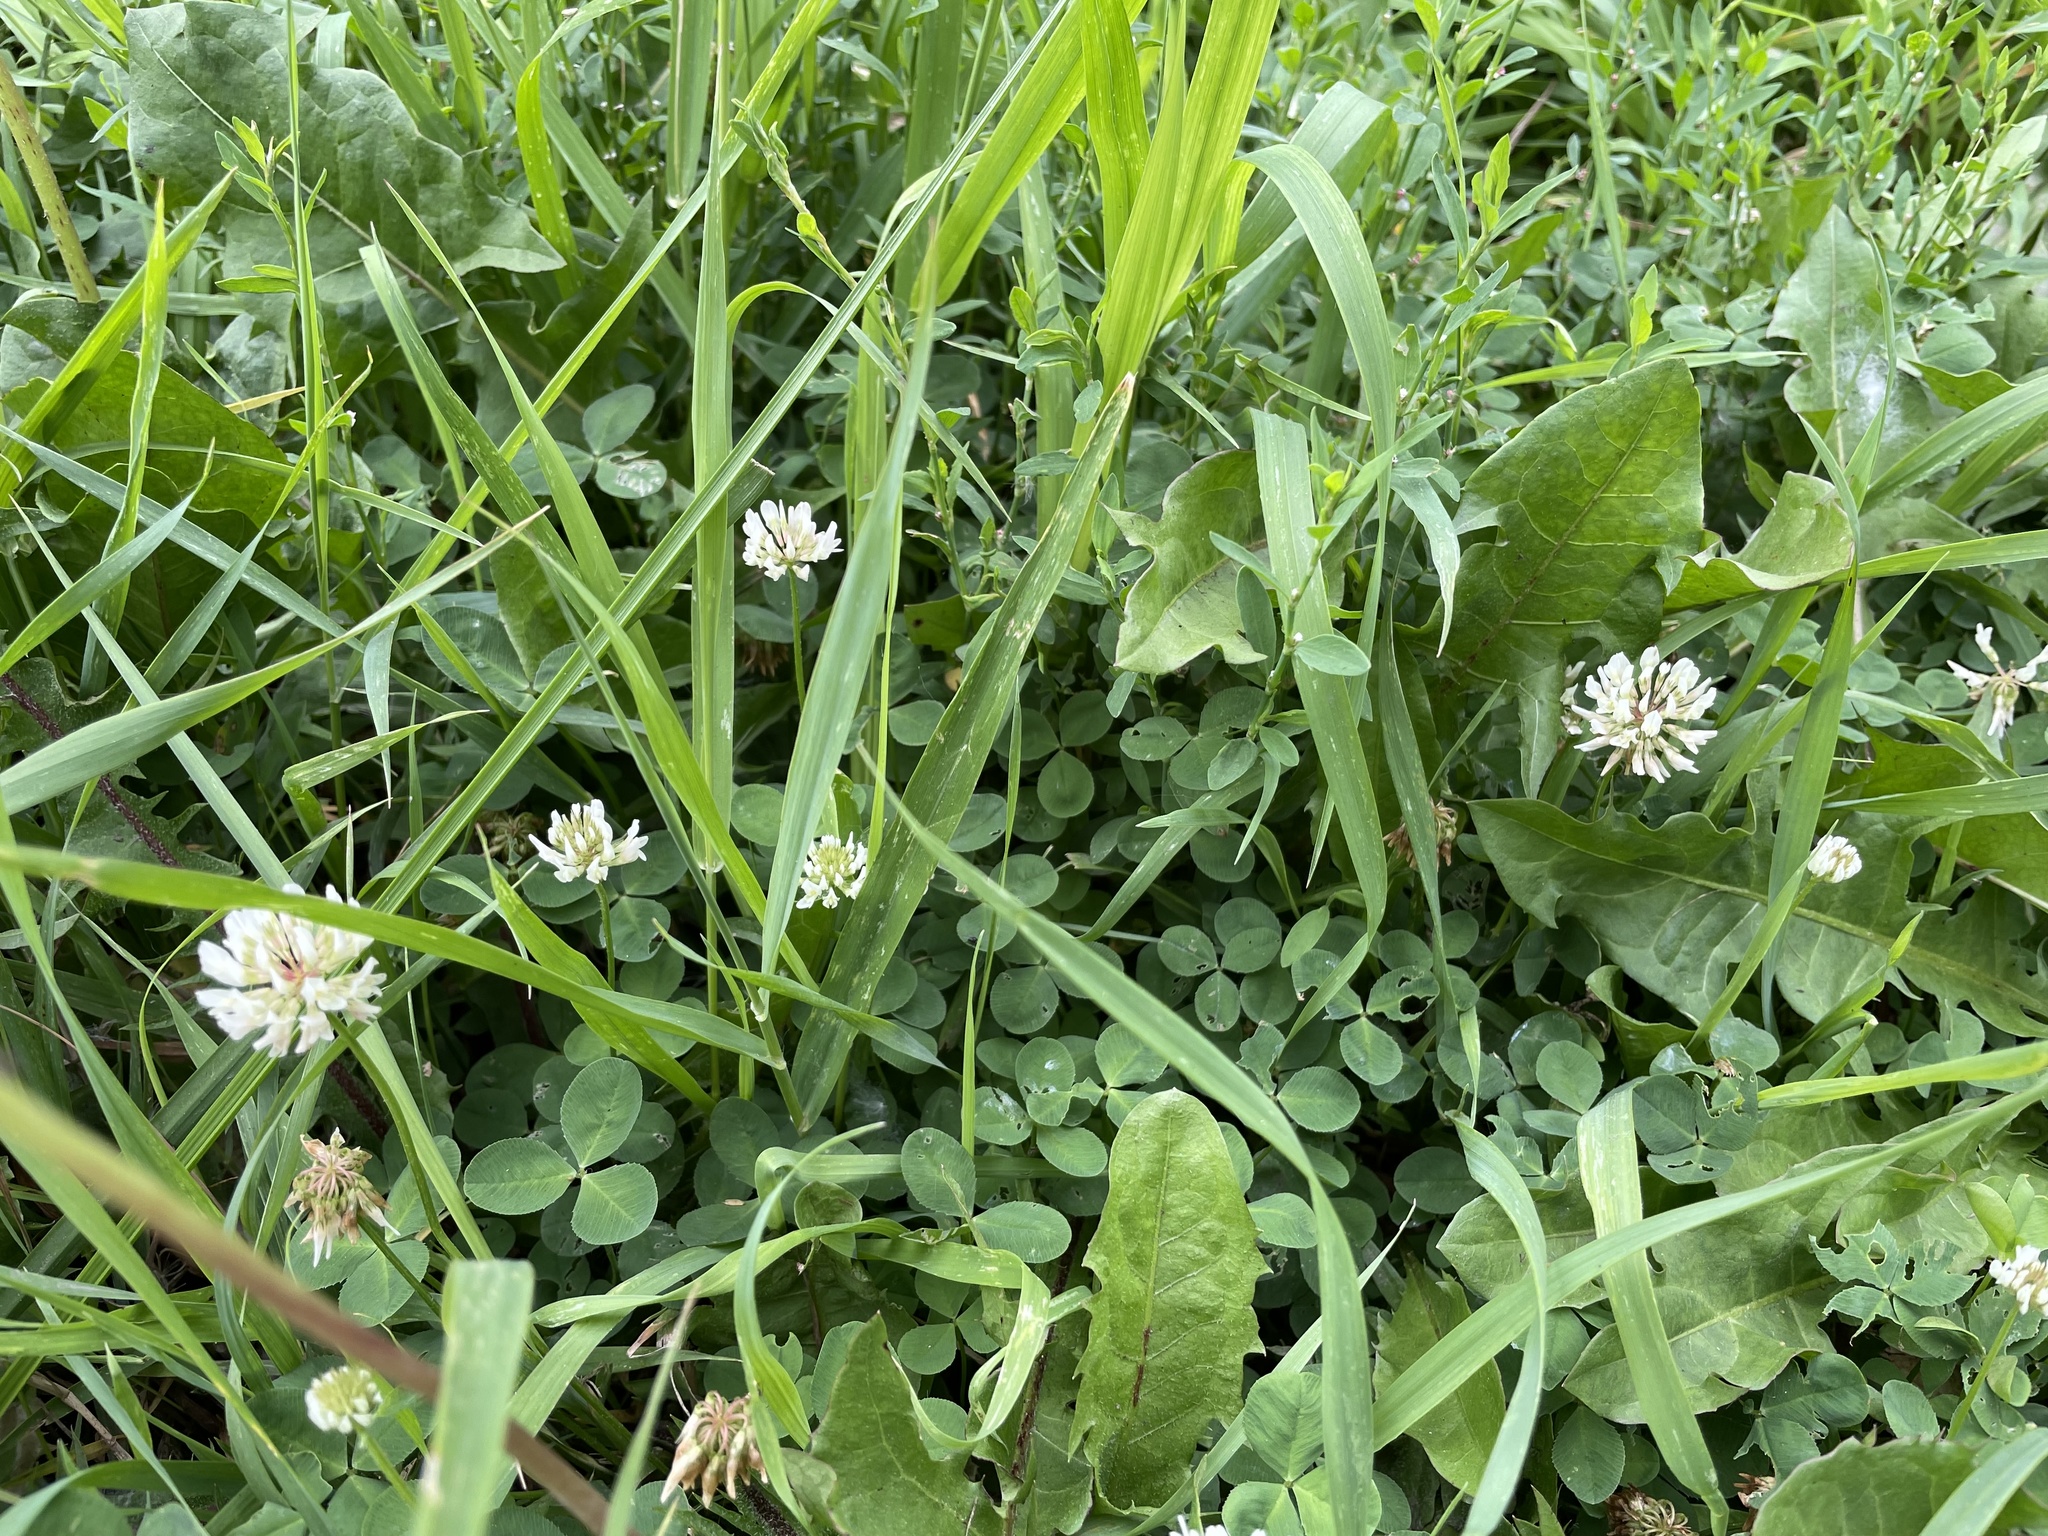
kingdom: Plantae
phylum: Tracheophyta
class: Magnoliopsida
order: Fabales
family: Fabaceae
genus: Trifolium
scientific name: Trifolium repens
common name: White clover
